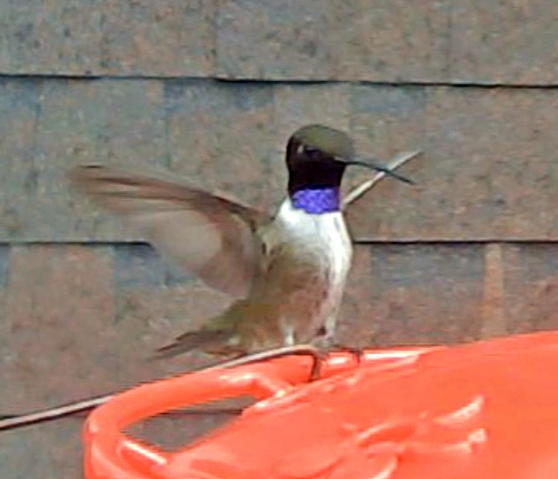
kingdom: Animalia
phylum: Chordata
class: Aves
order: Apodiformes
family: Trochilidae
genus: Archilochus
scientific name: Archilochus alexandri
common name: Black-chinned hummingbird
